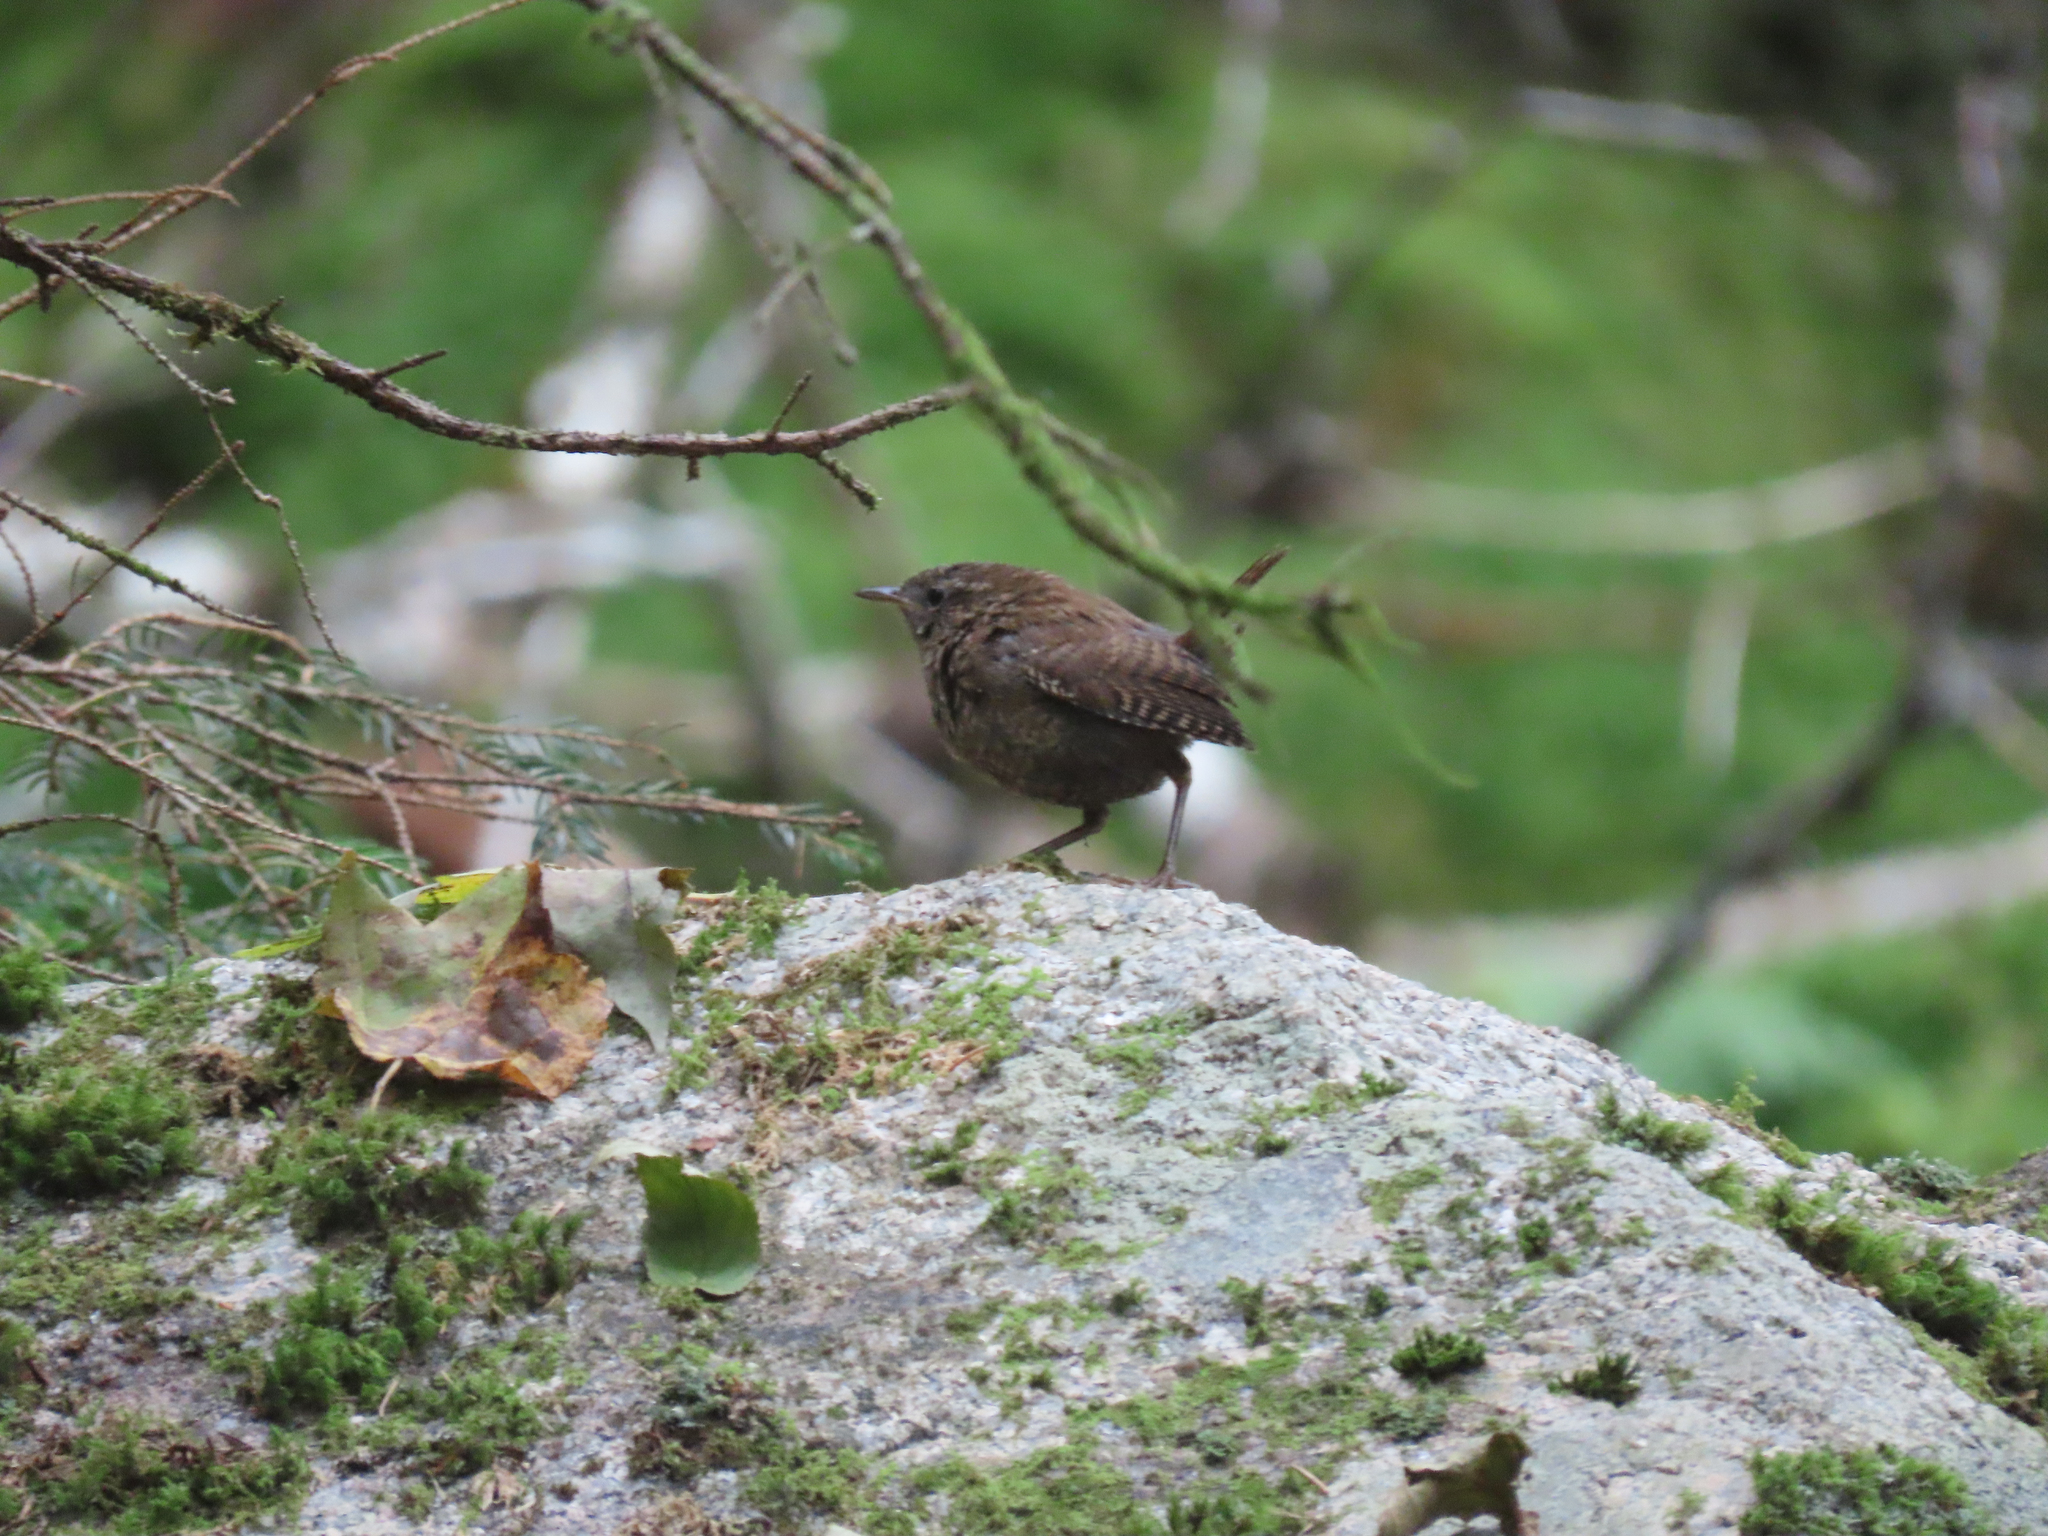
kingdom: Animalia
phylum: Chordata
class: Aves
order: Passeriformes
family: Troglodytidae
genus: Troglodytes
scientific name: Troglodytes hiemalis
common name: Winter wren
